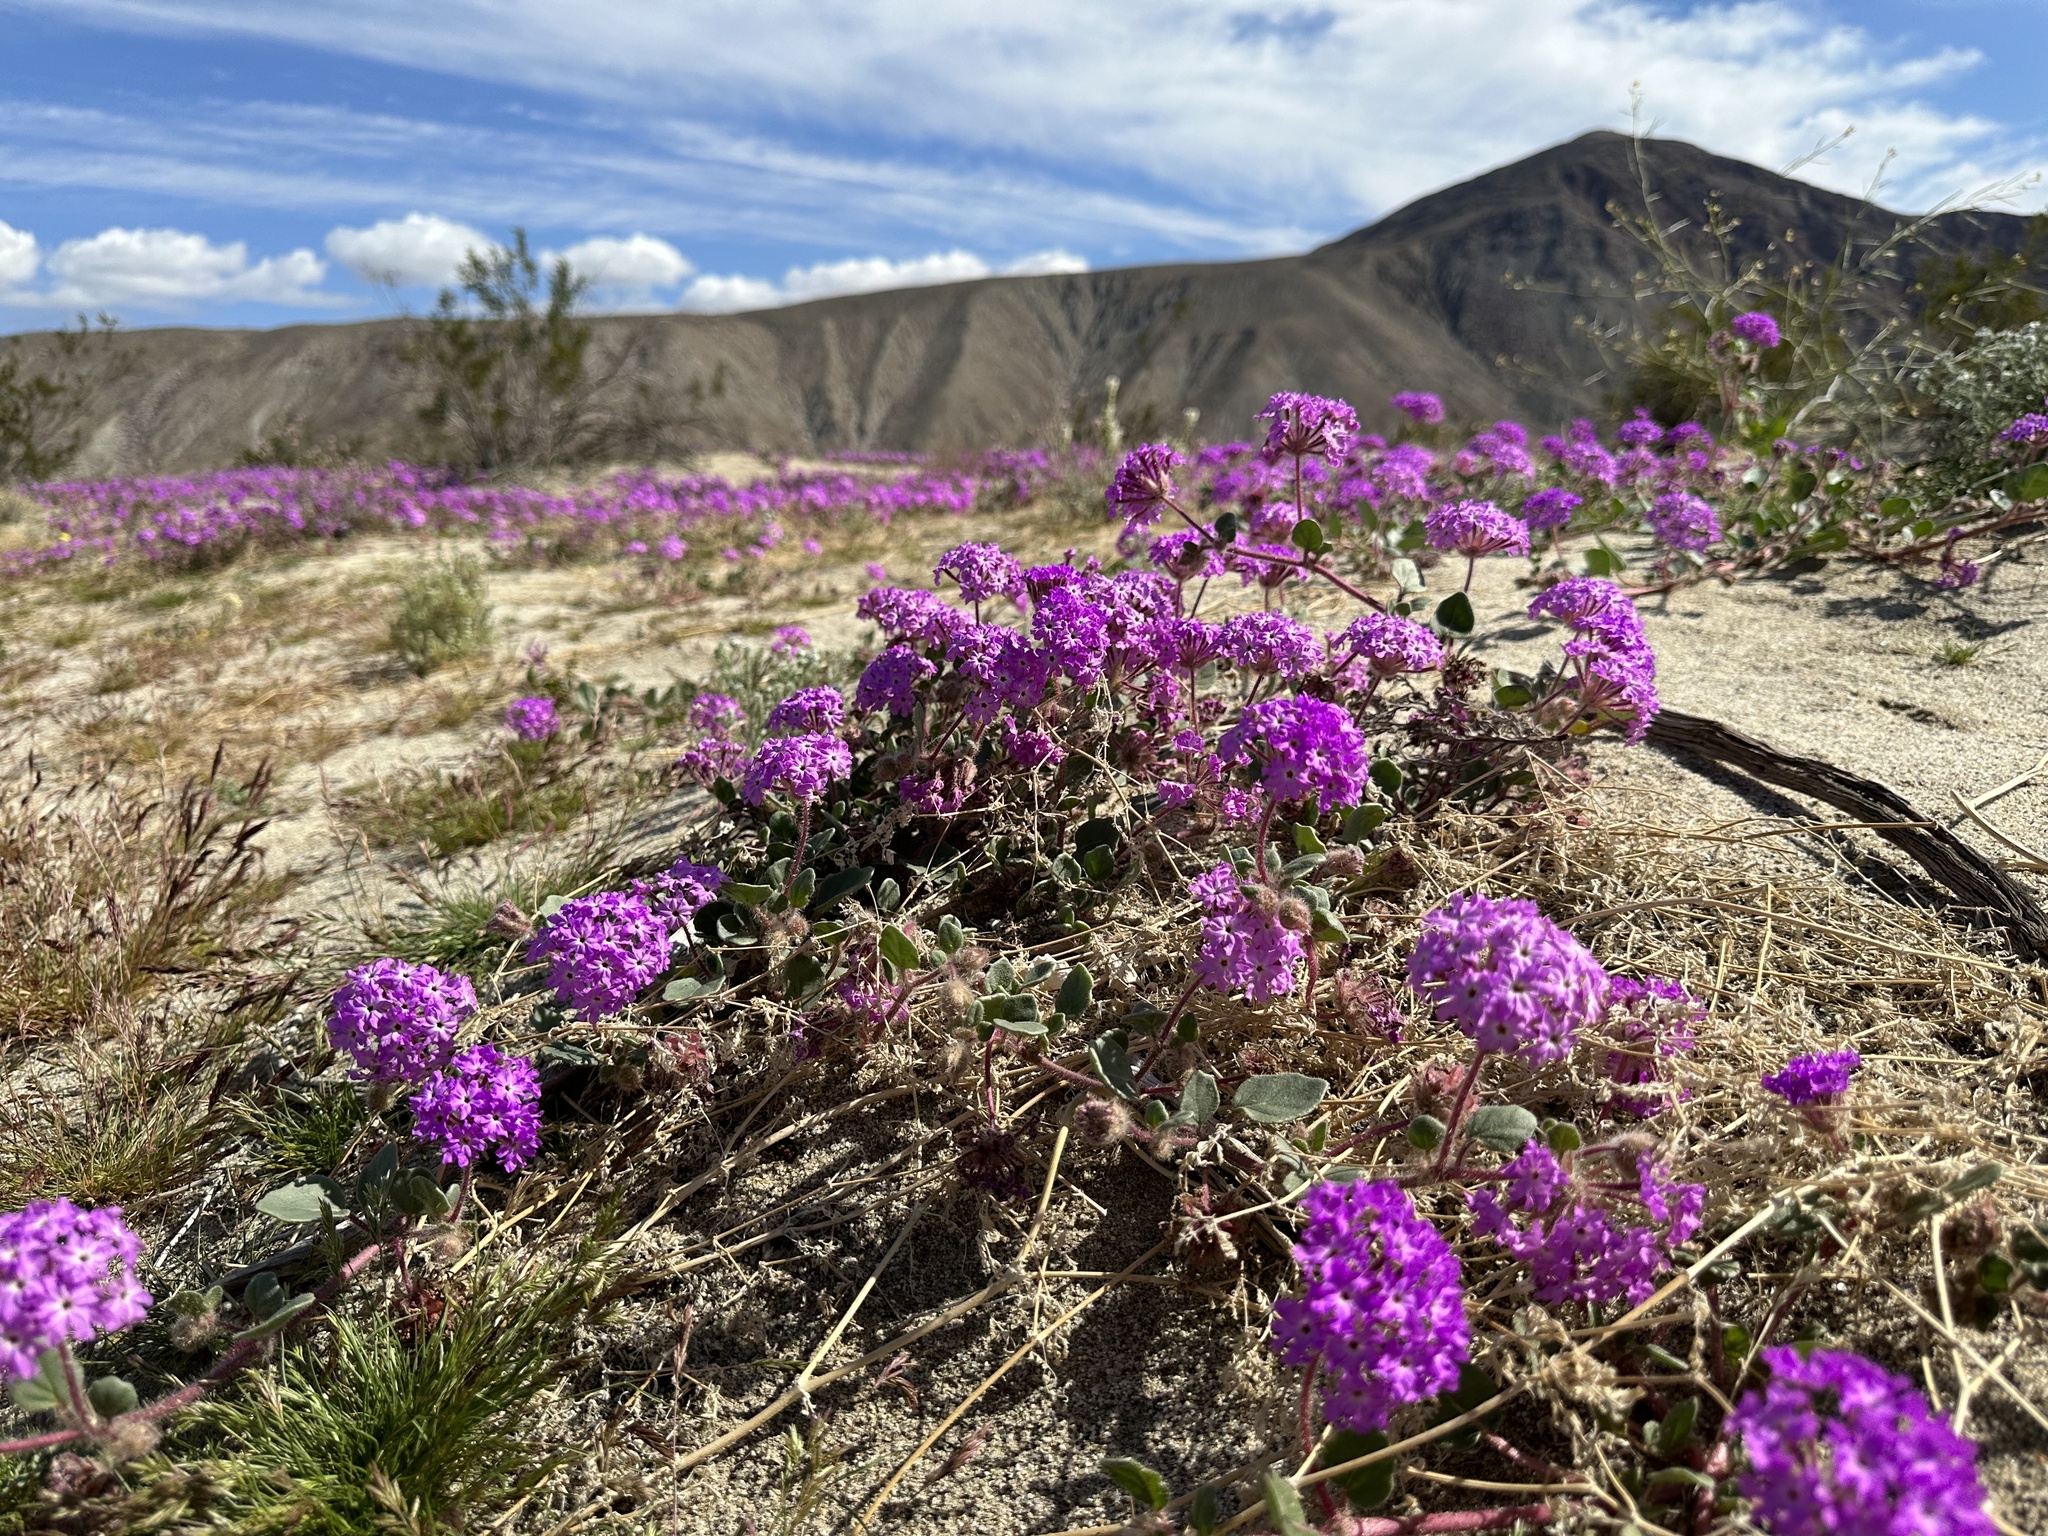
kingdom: Plantae
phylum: Tracheophyta
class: Magnoliopsida
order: Caryophyllales
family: Nyctaginaceae
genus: Abronia
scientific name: Abronia villosa
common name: Desert sand-verbena
